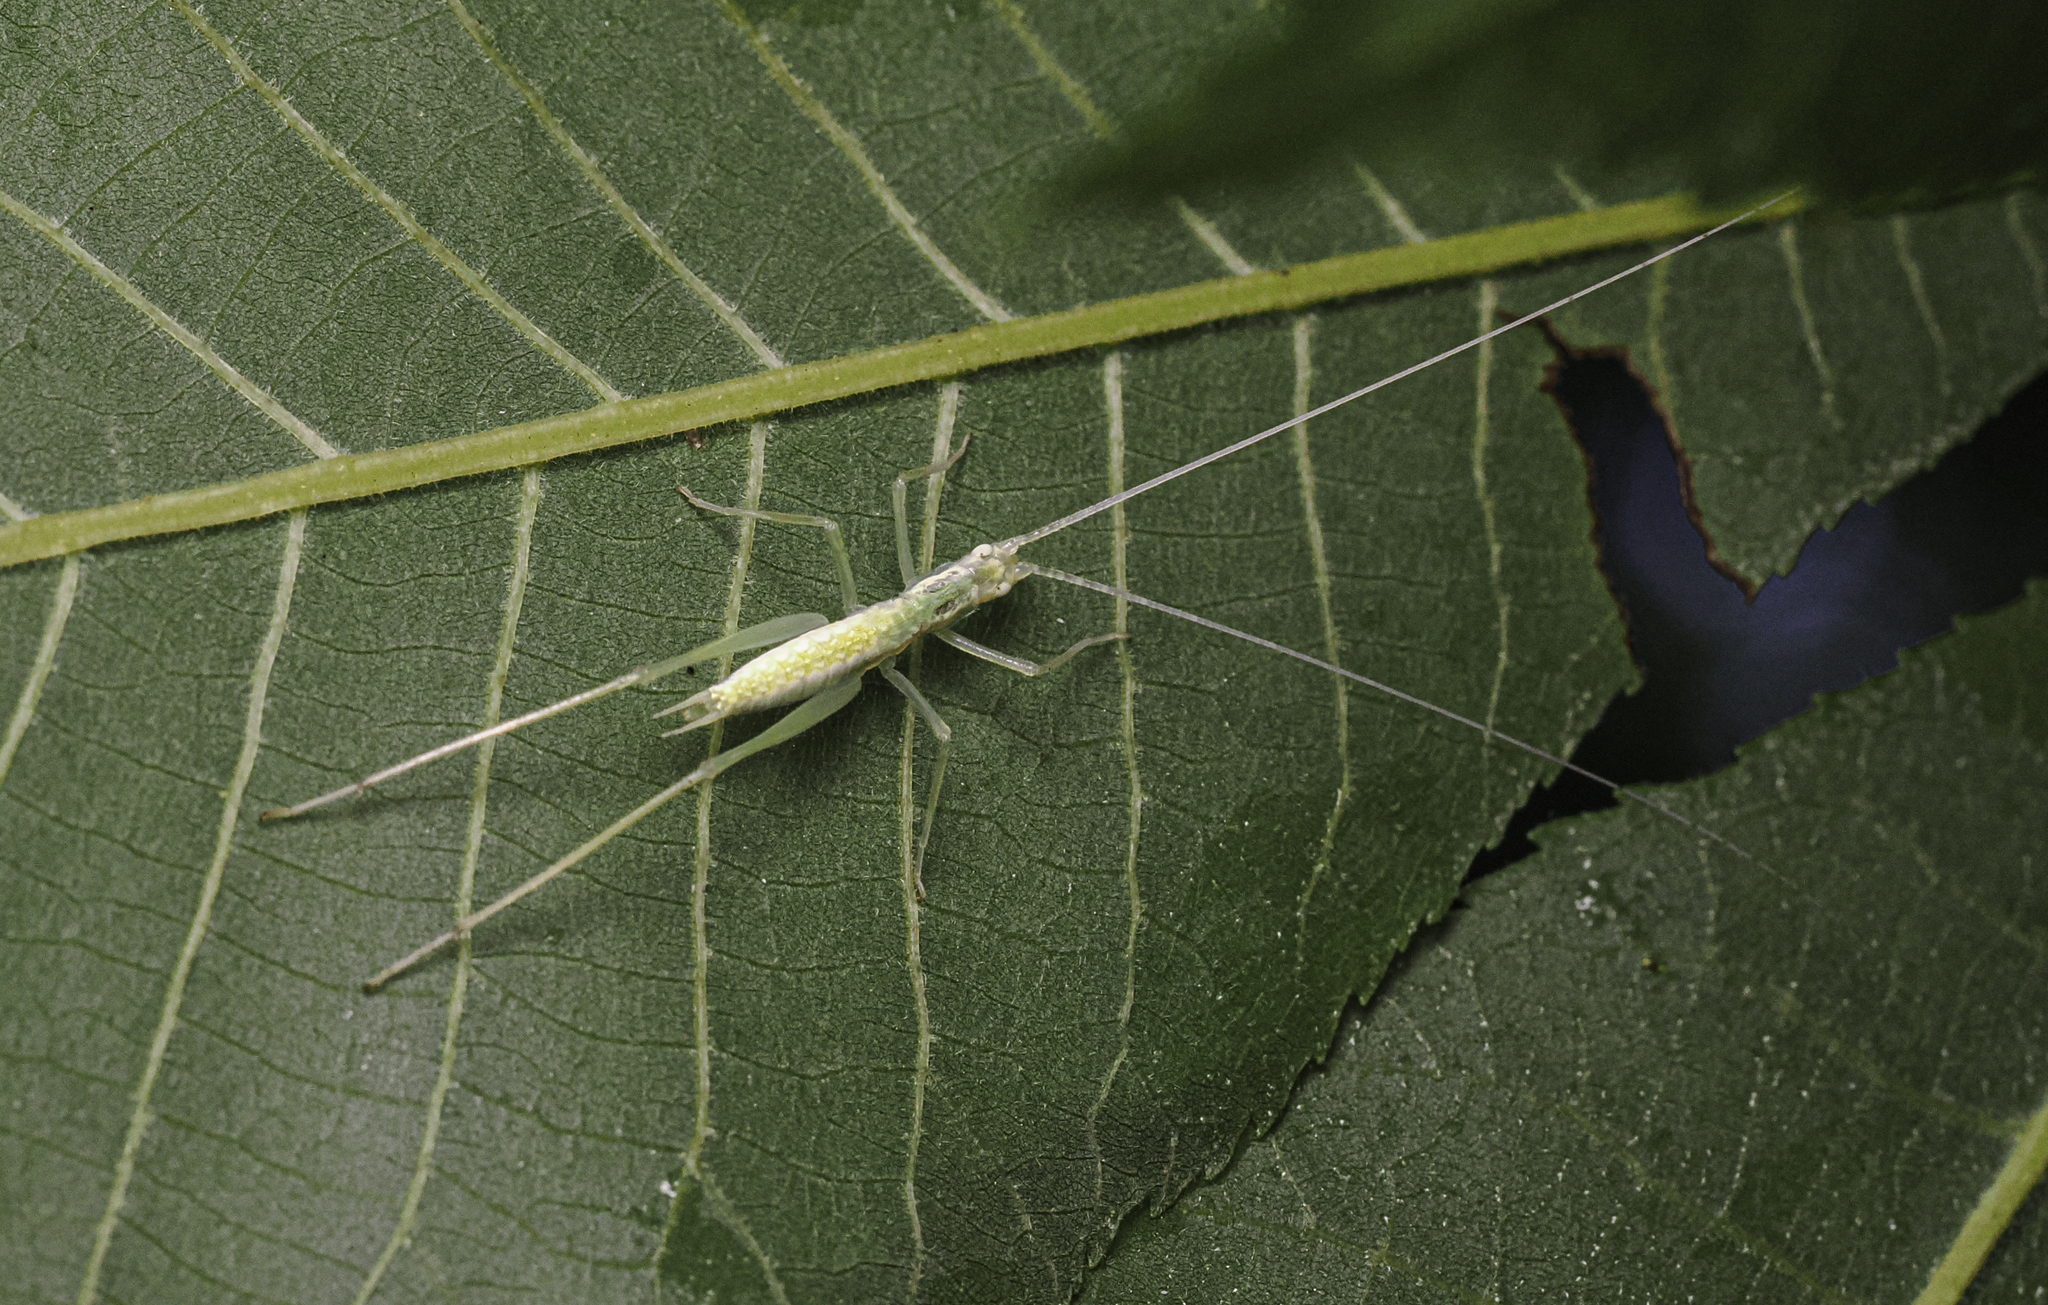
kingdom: Animalia
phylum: Arthropoda
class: Insecta
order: Orthoptera
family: Gryllidae
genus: Oecanthus
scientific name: Oecanthus niveus
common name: Narrow-winged tree cricket
